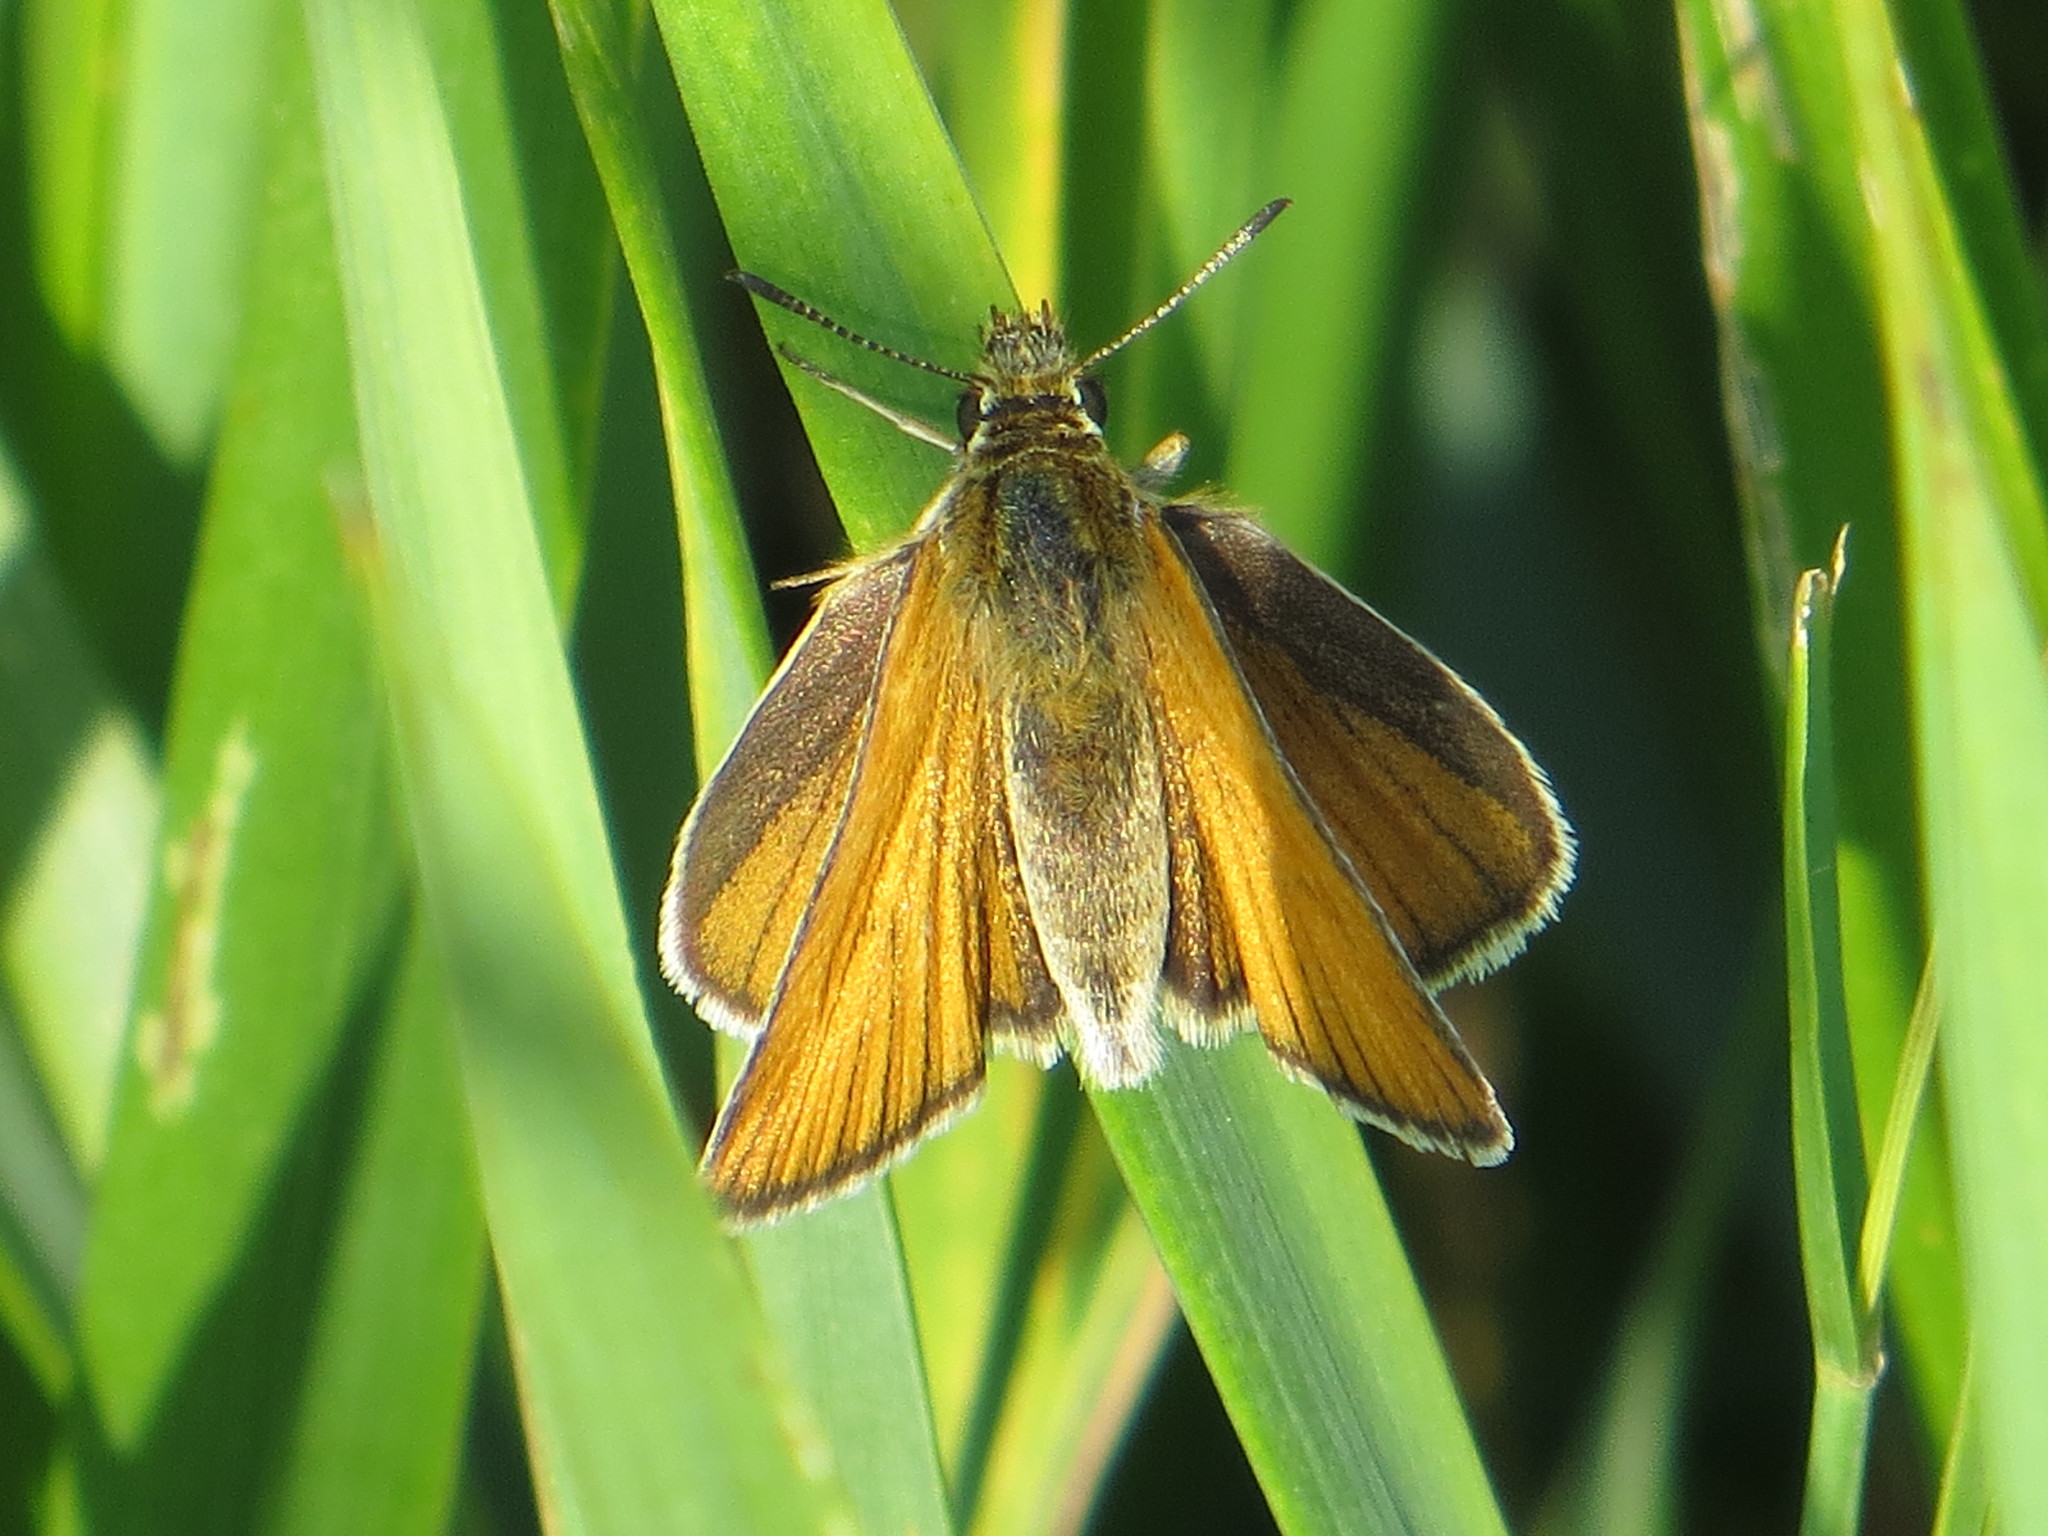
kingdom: Animalia
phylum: Arthropoda
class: Insecta
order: Lepidoptera
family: Hesperiidae
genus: Thymelicus
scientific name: Thymelicus lineola
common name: Essex skipper
